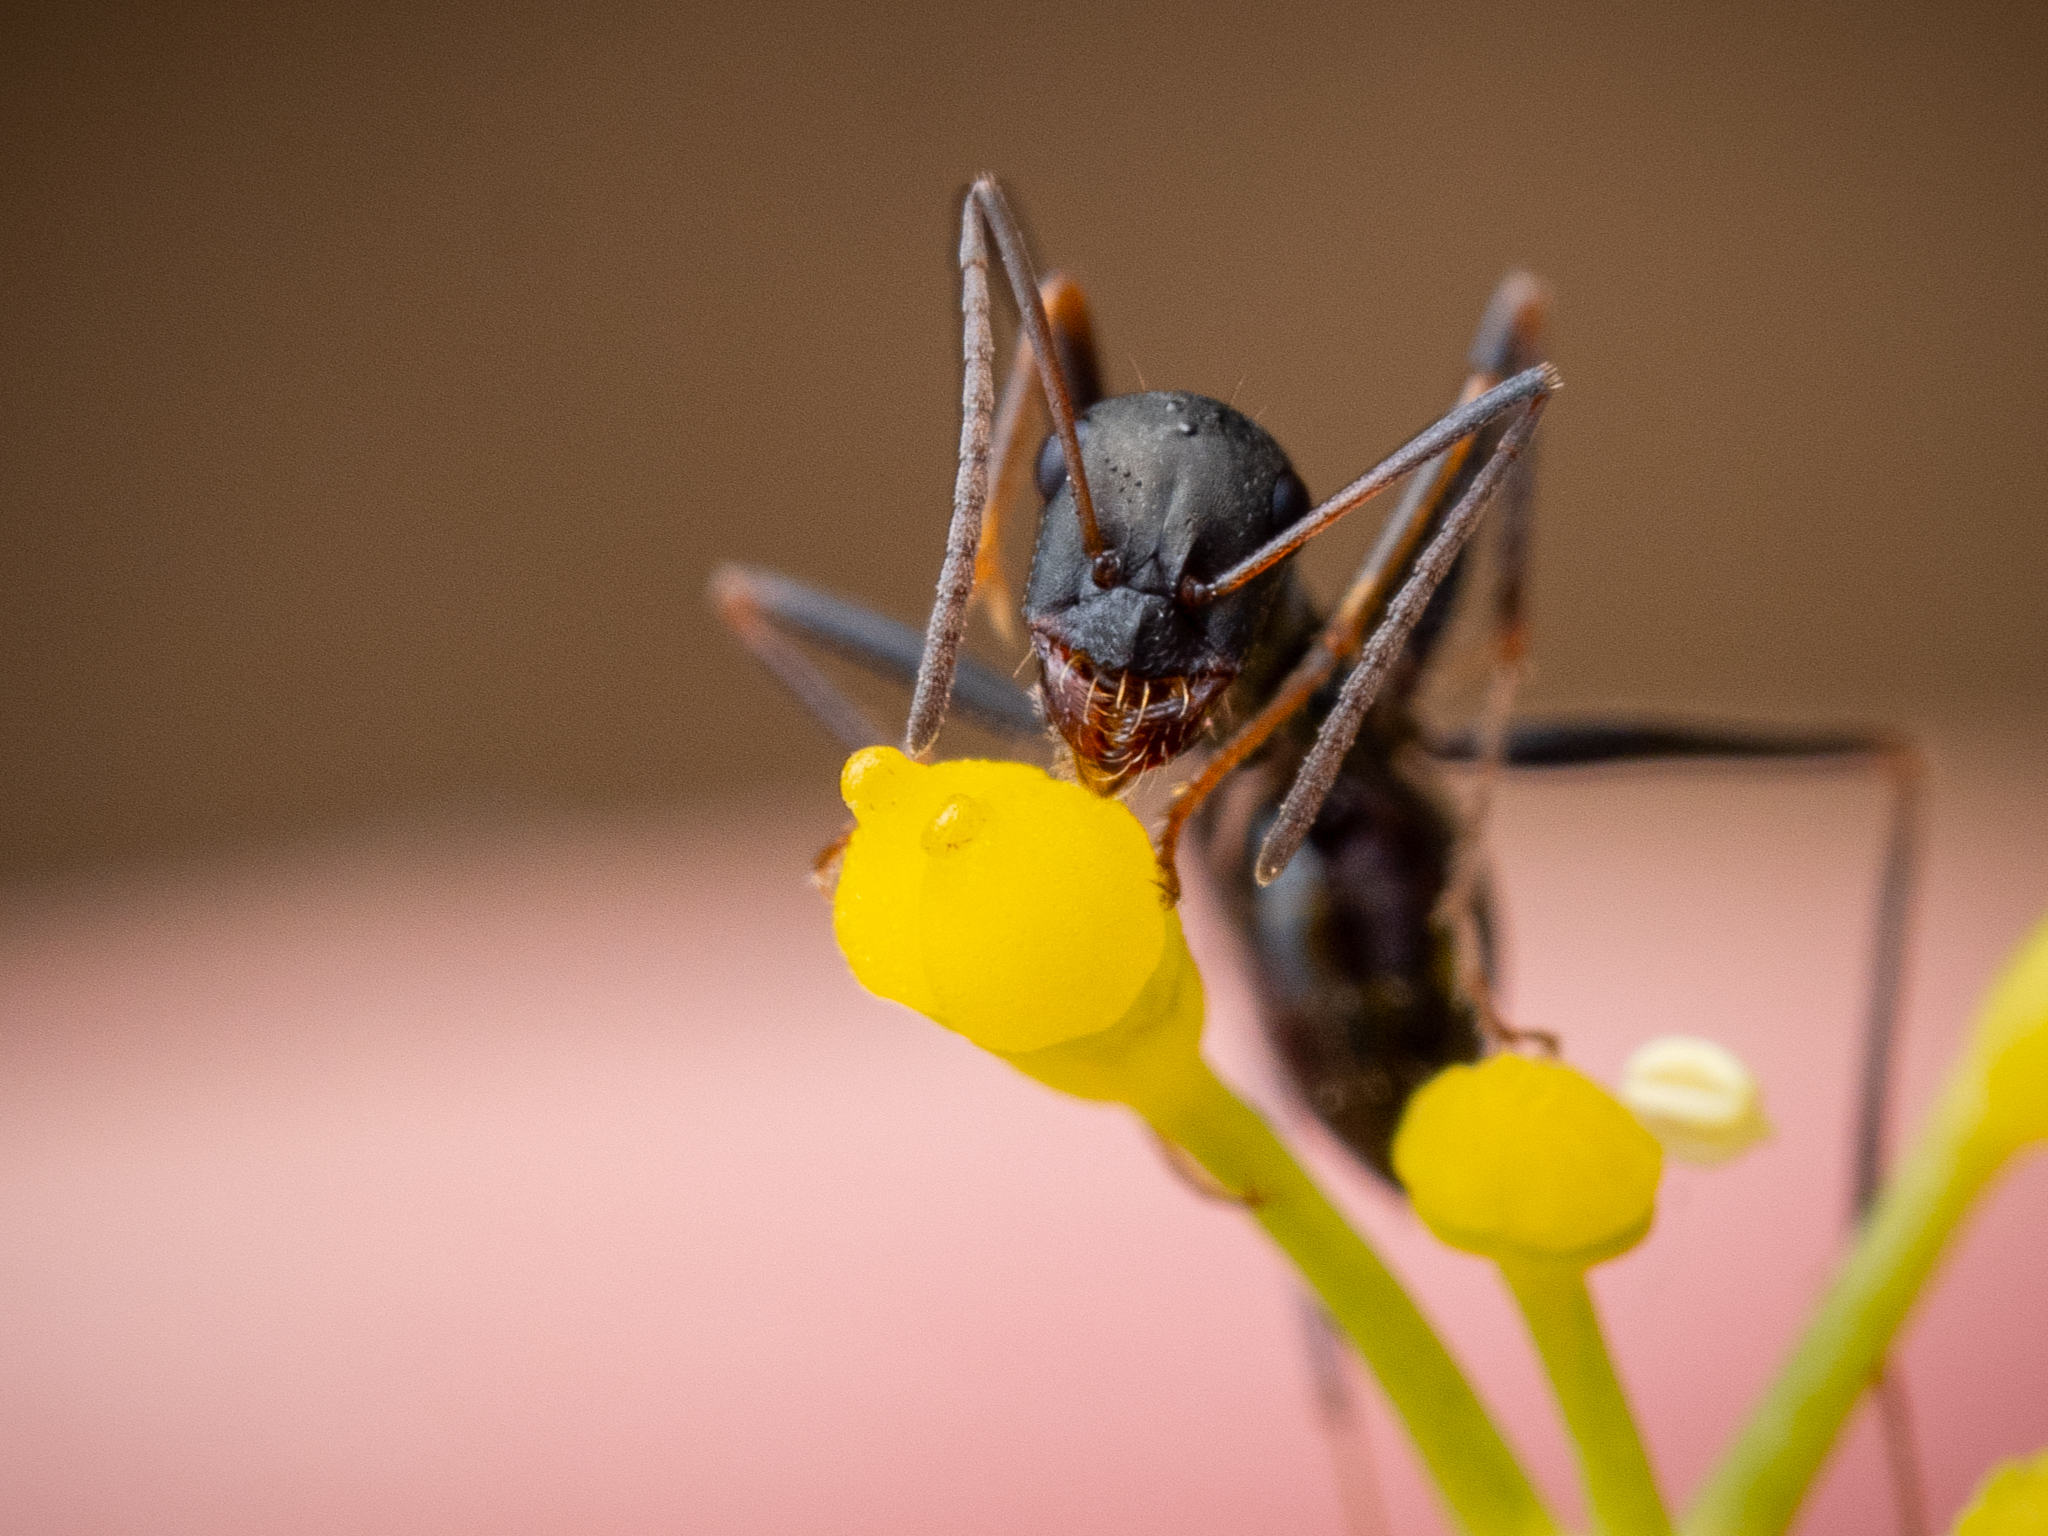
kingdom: Animalia
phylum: Arthropoda
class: Insecta
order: Hymenoptera
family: Formicidae
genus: Cataglyphis
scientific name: Cataglyphis hellenicus
